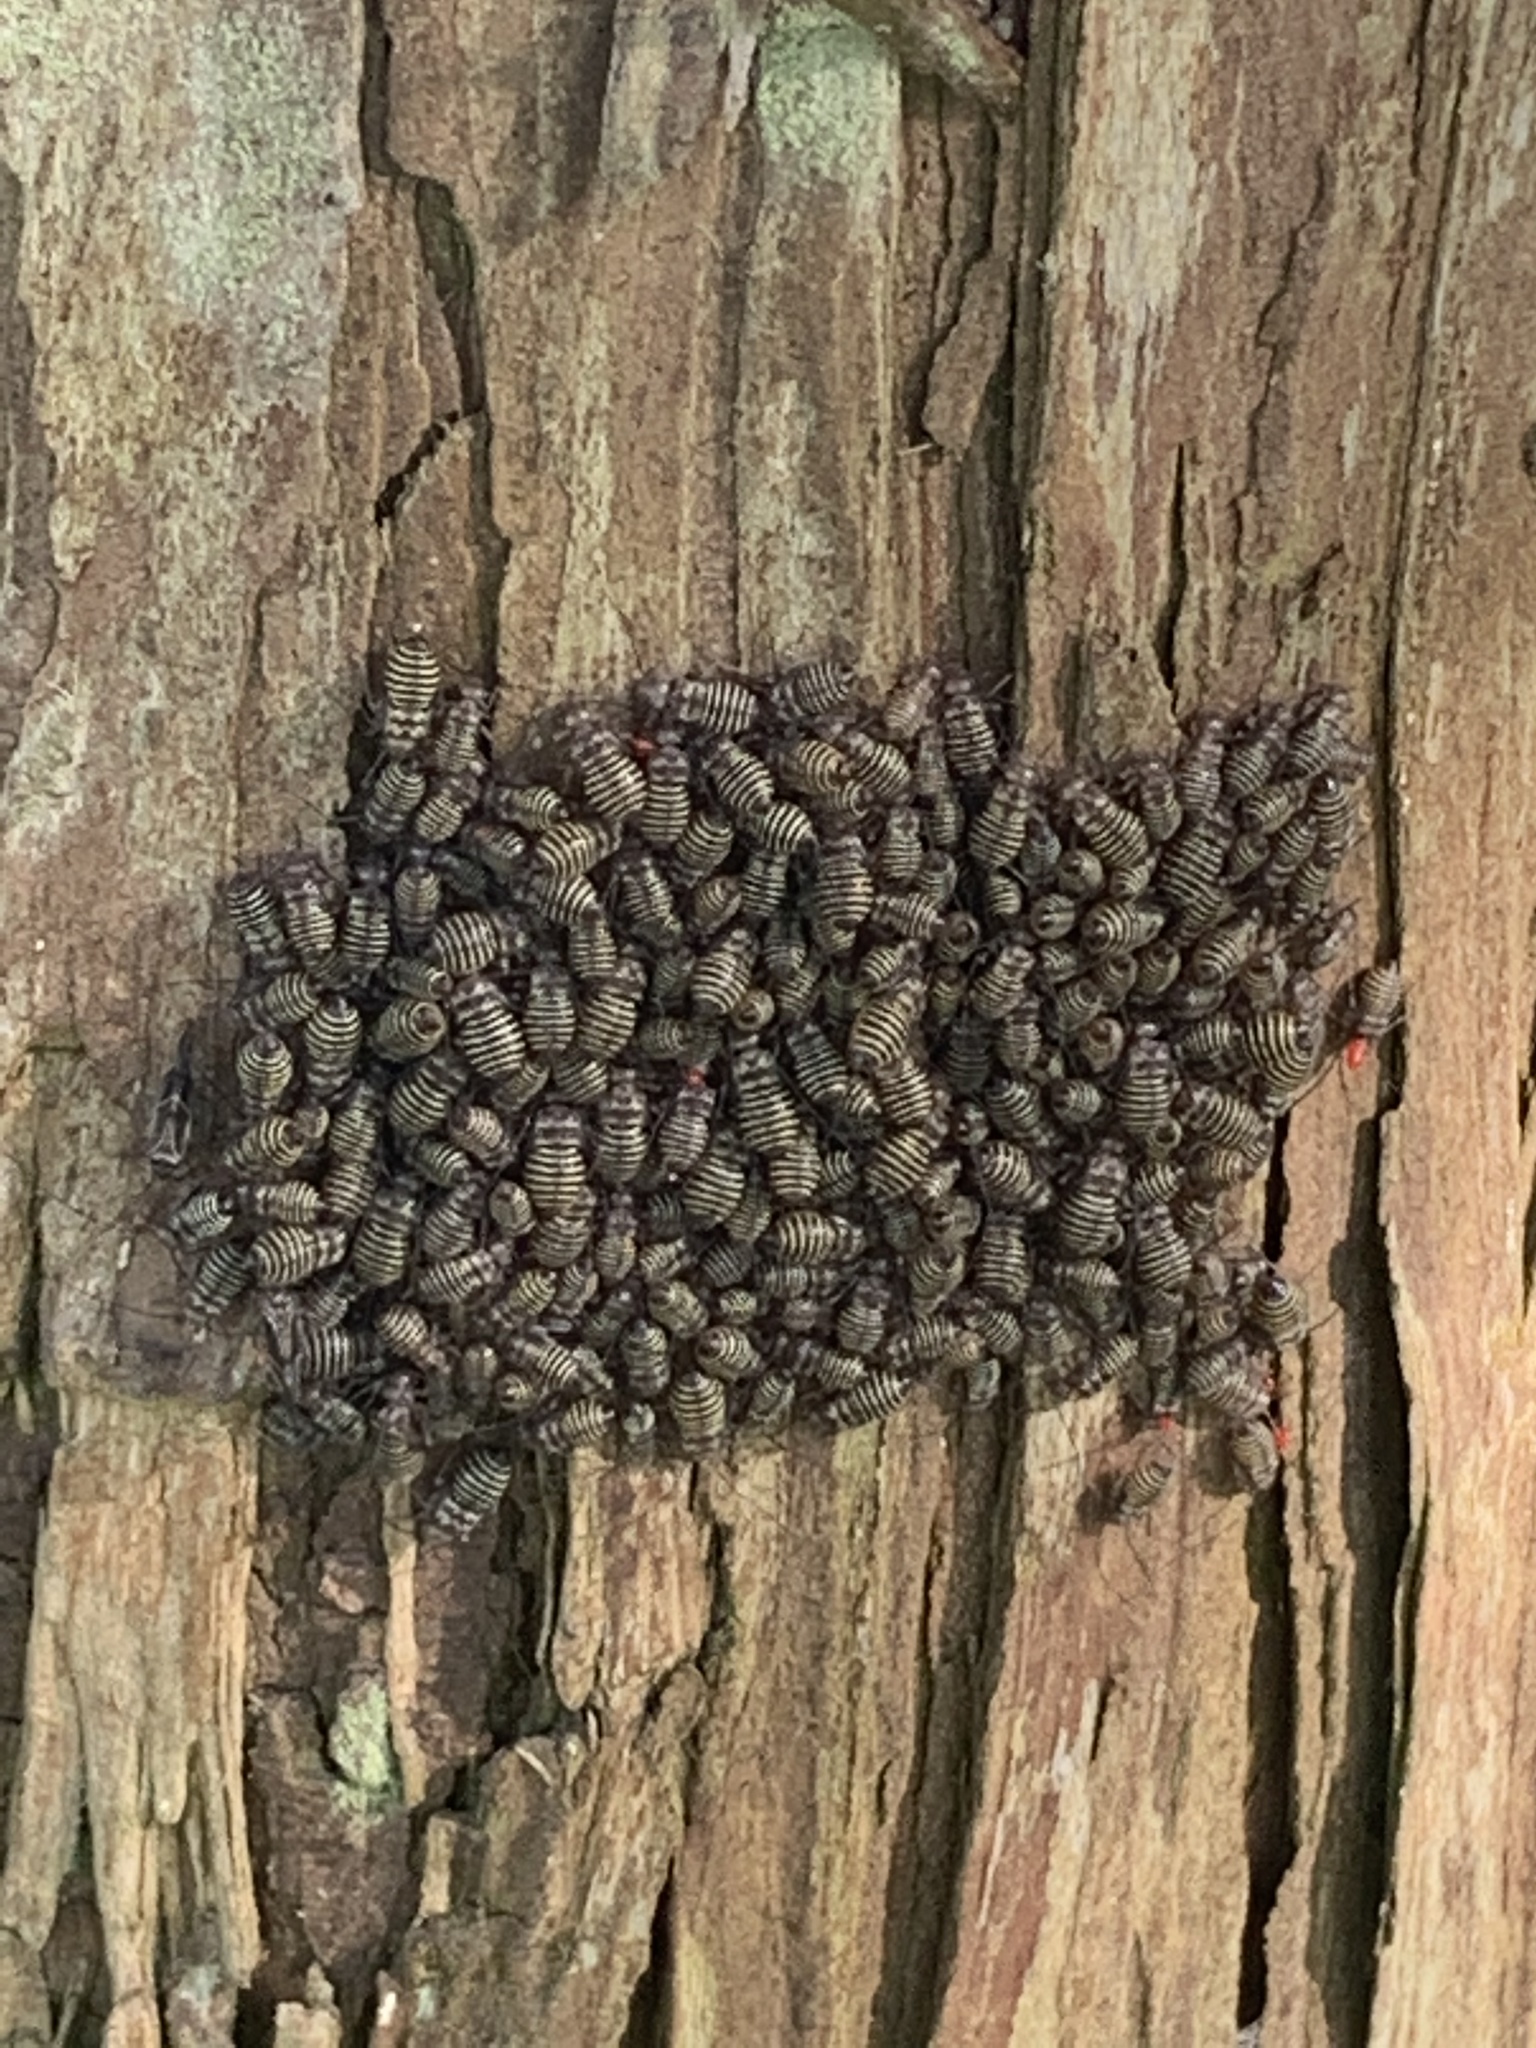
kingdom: Animalia
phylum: Arthropoda
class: Insecta
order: Psocodea
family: Psocidae
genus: Cerastipsocus
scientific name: Cerastipsocus venosus
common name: Tree cattle
